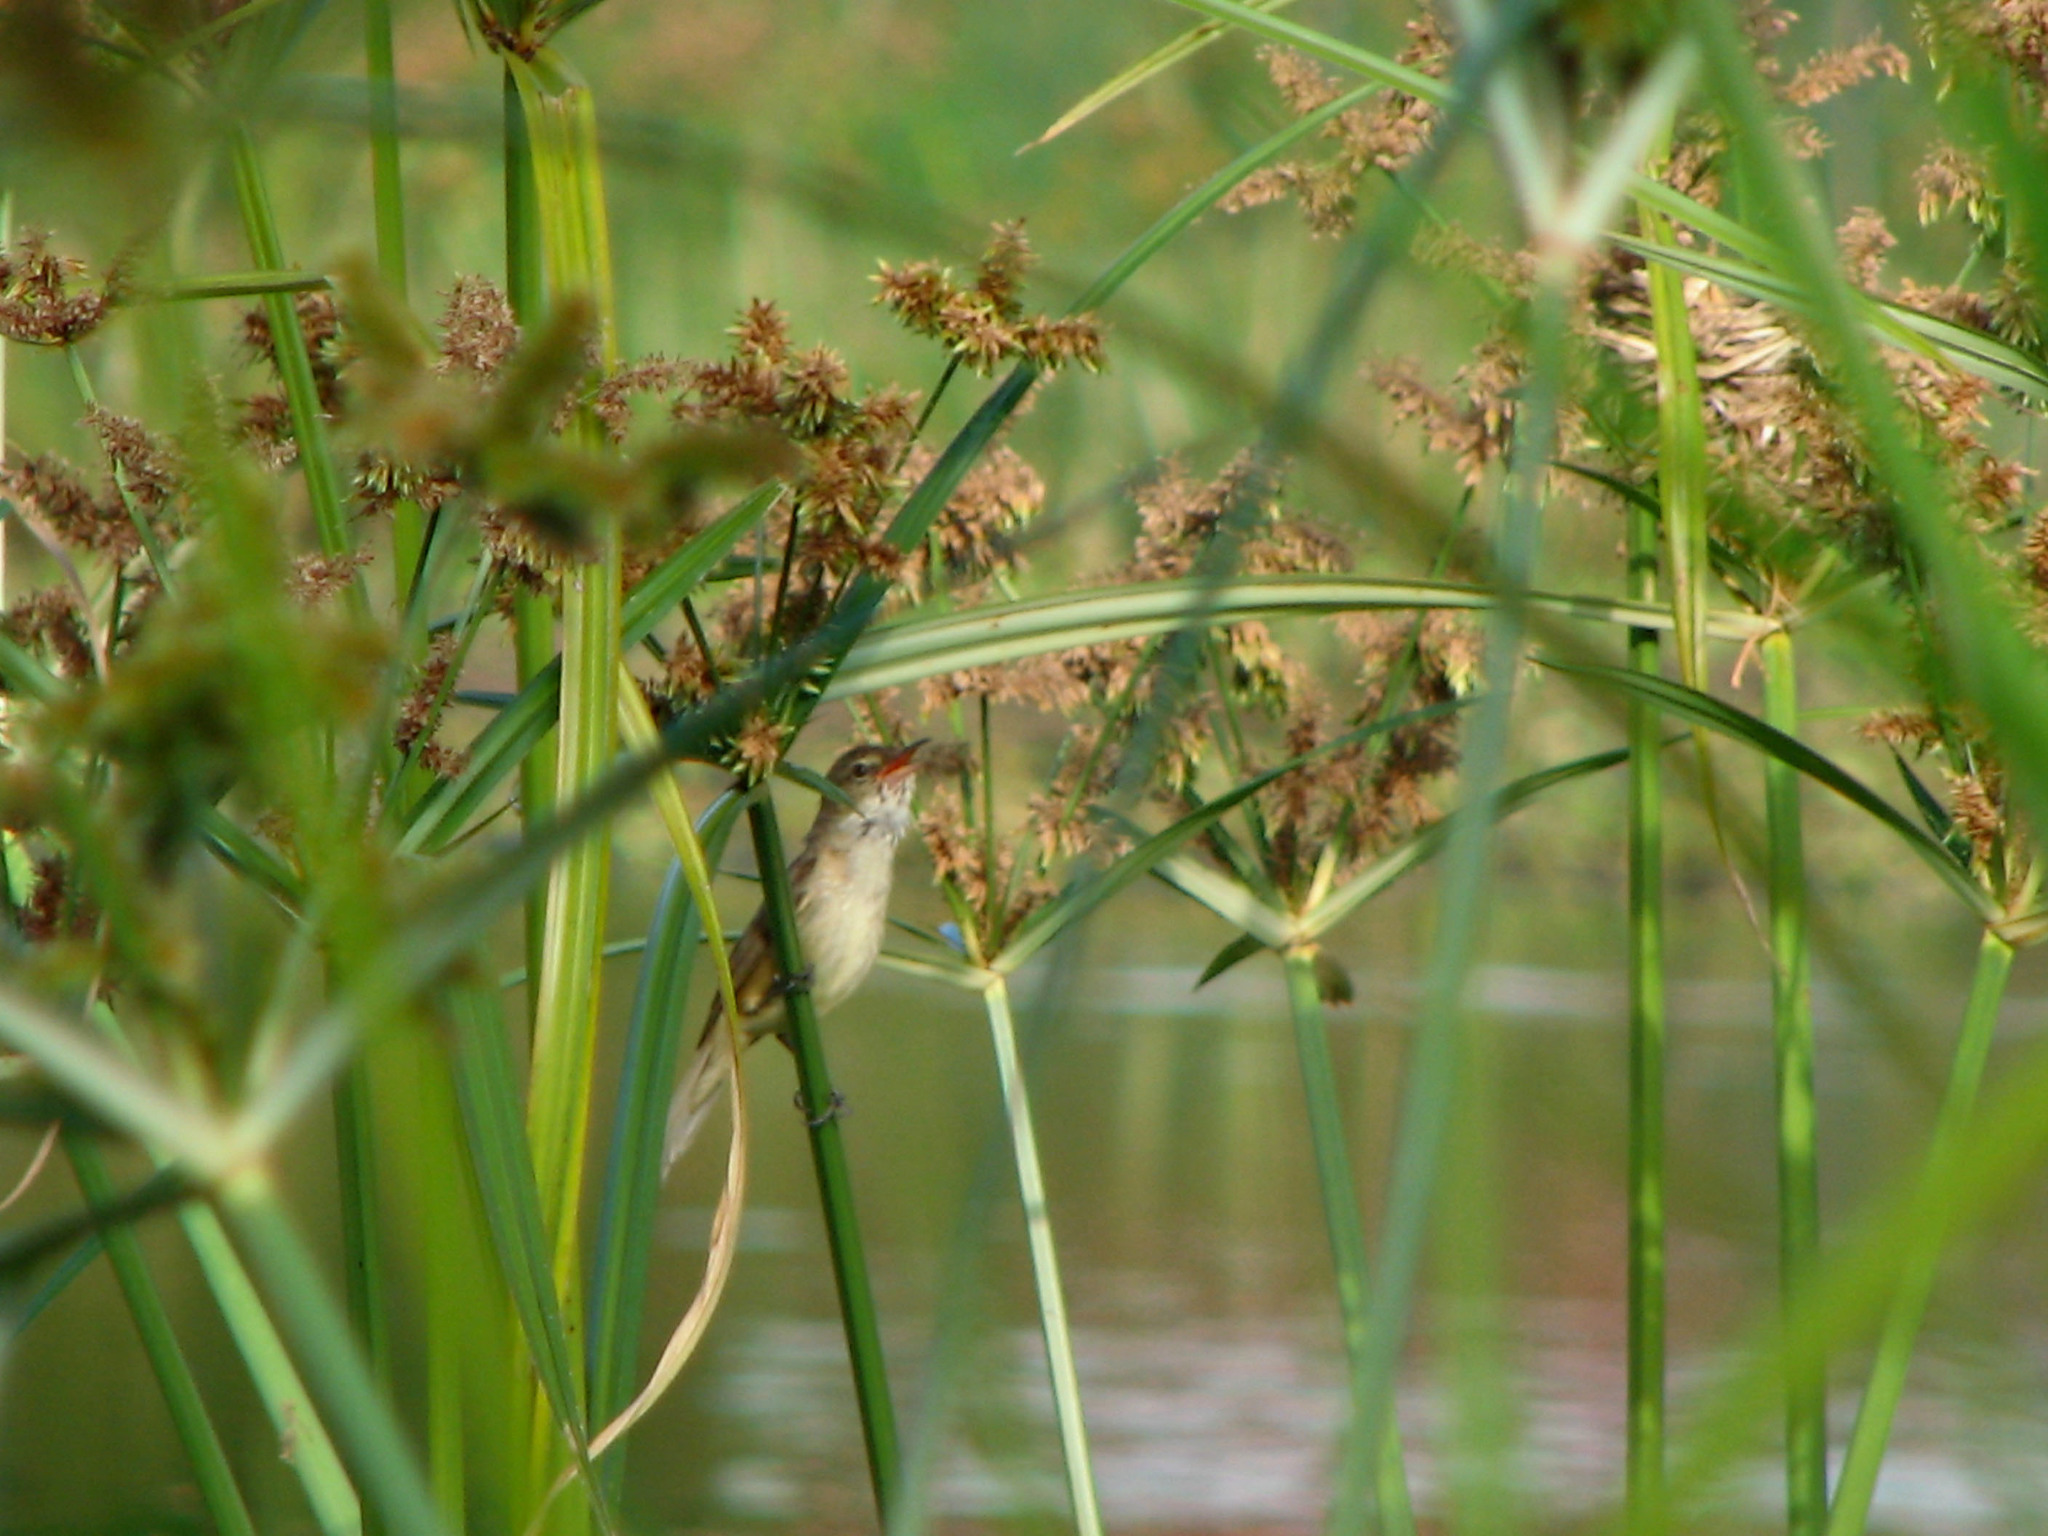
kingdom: Animalia
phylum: Chordata
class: Aves
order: Passeriformes
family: Acrocephalidae
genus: Acrocephalus
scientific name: Acrocephalus australis
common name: Australian reed warbler
